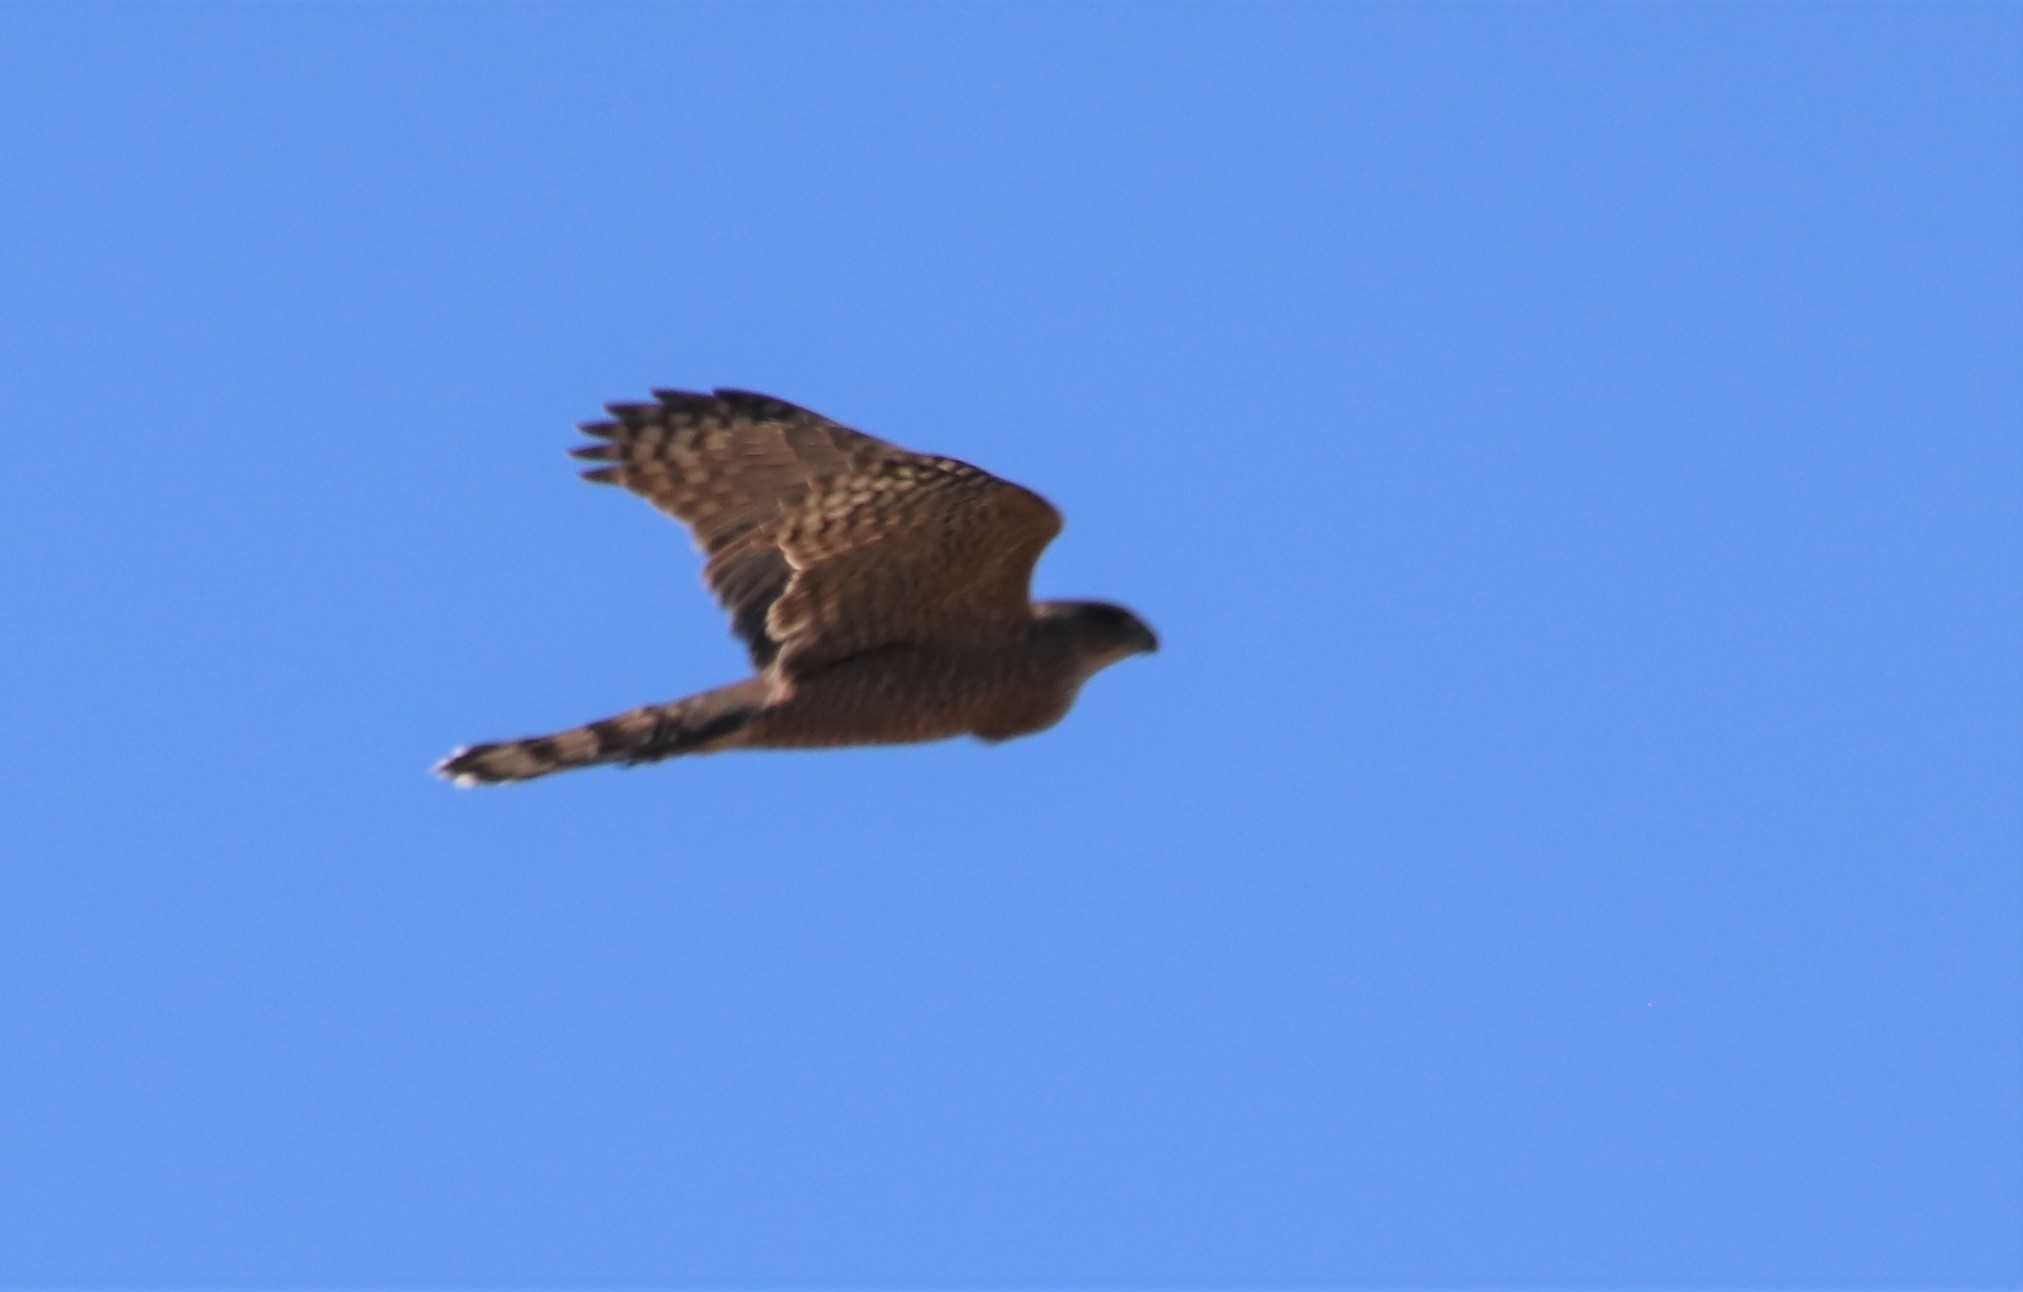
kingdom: Animalia
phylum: Chordata
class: Aves
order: Accipitriformes
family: Accipitridae
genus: Accipiter
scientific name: Accipiter cooperii
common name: Cooper's hawk
